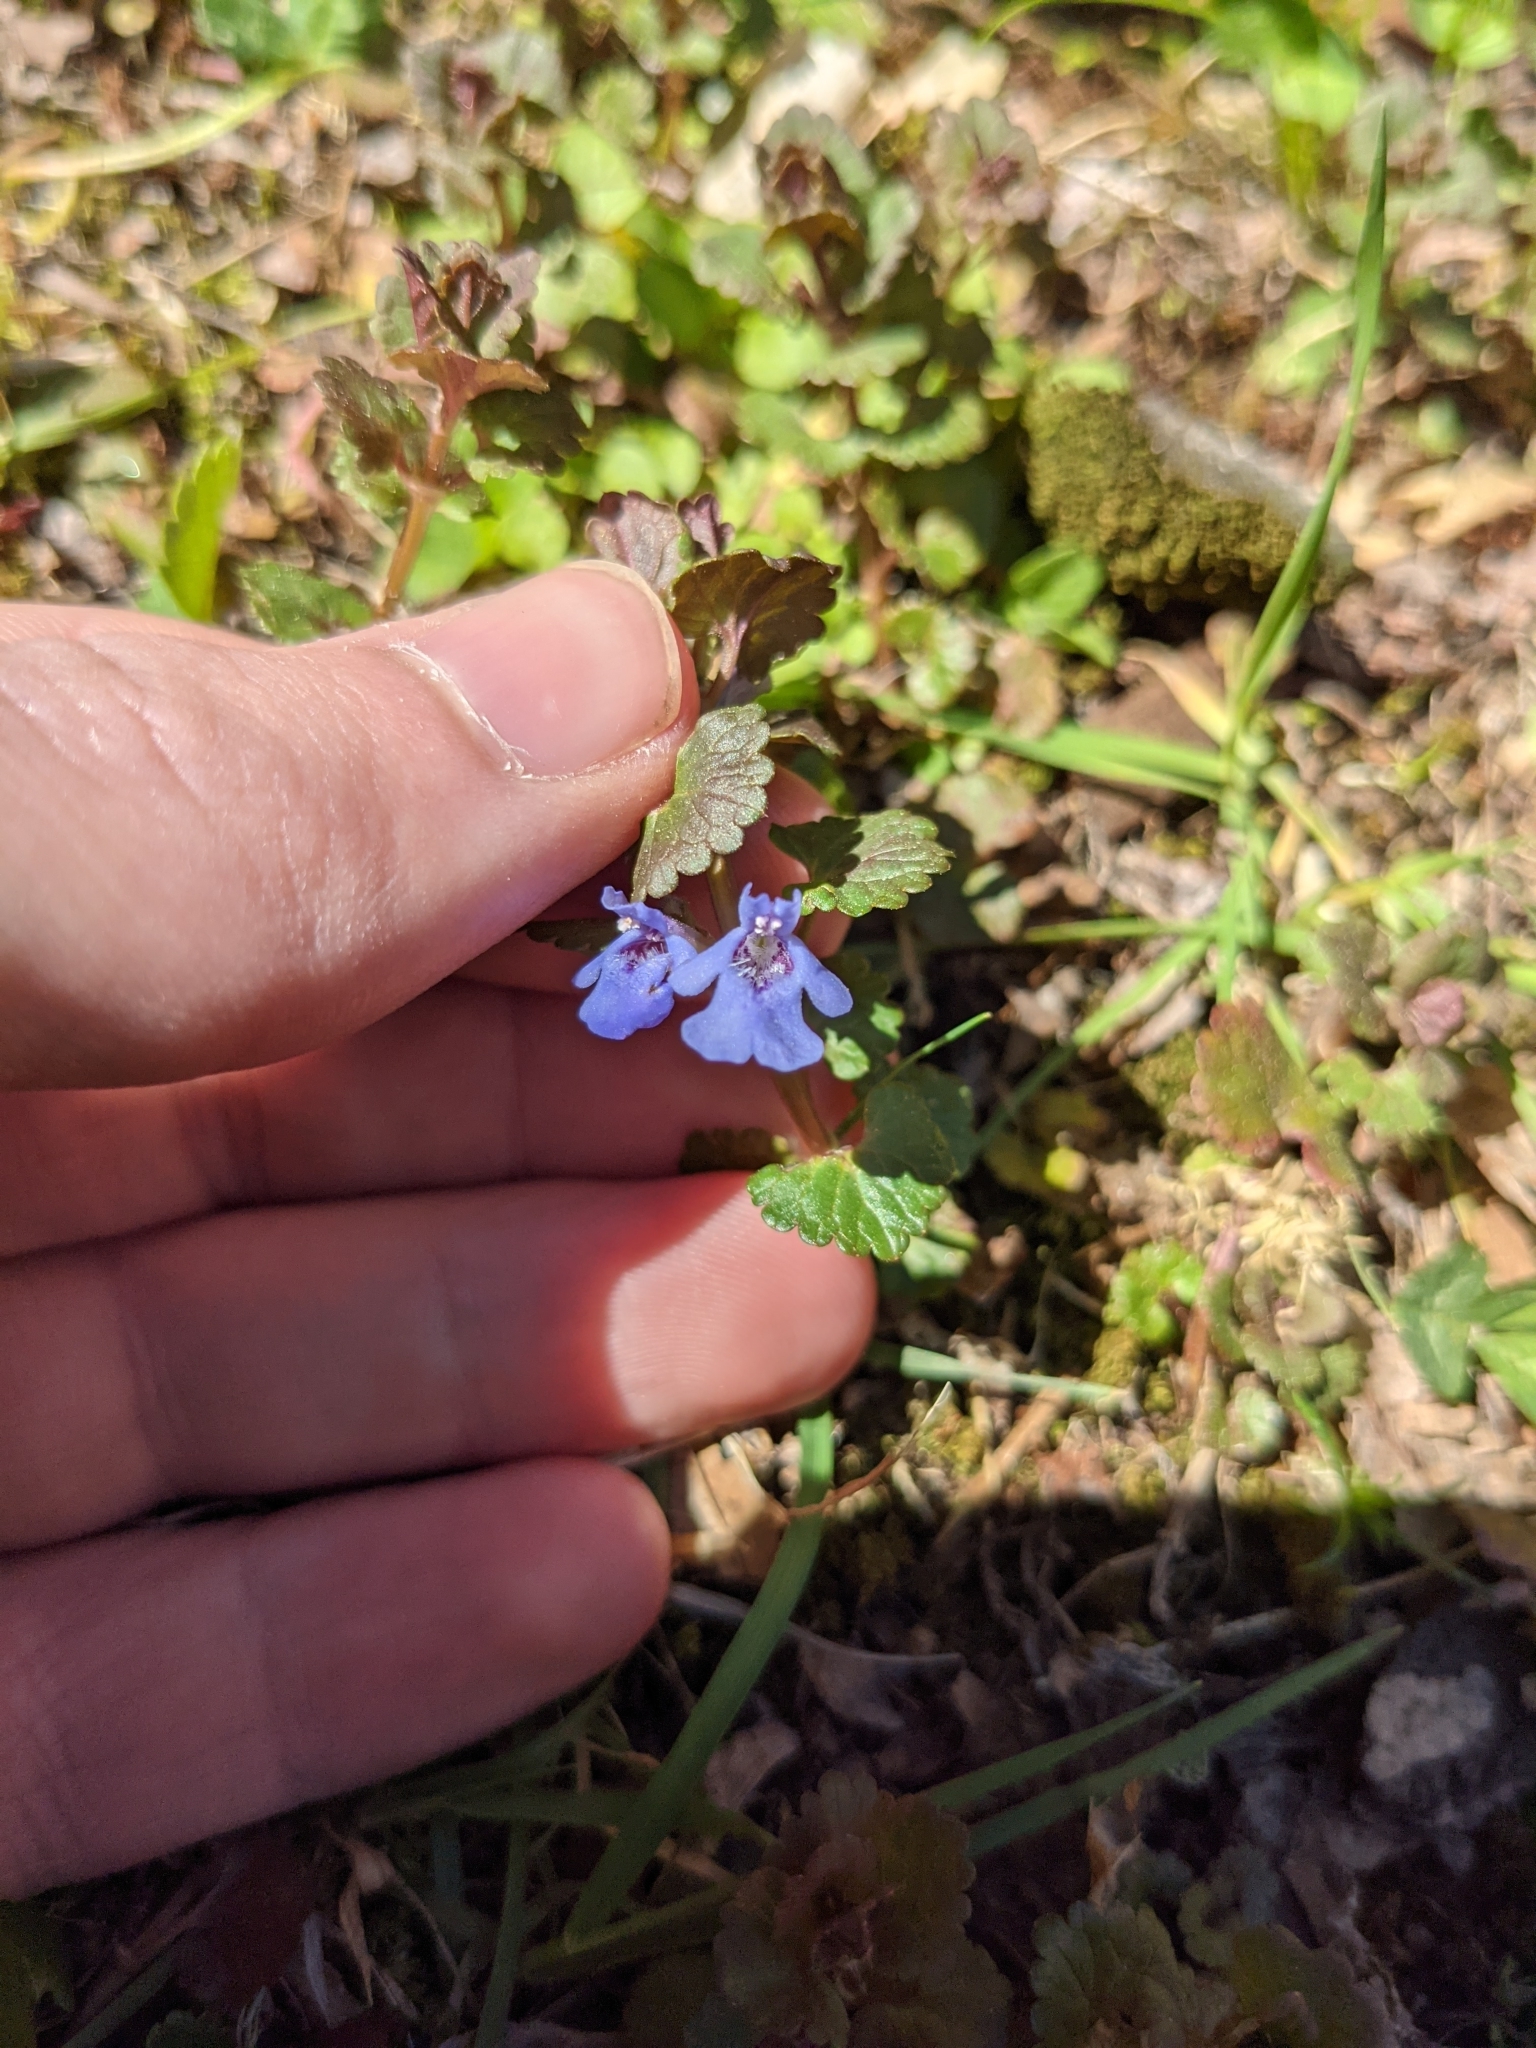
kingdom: Plantae
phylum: Tracheophyta
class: Magnoliopsida
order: Lamiales
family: Lamiaceae
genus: Glechoma
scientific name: Glechoma hederacea
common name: Ground ivy
